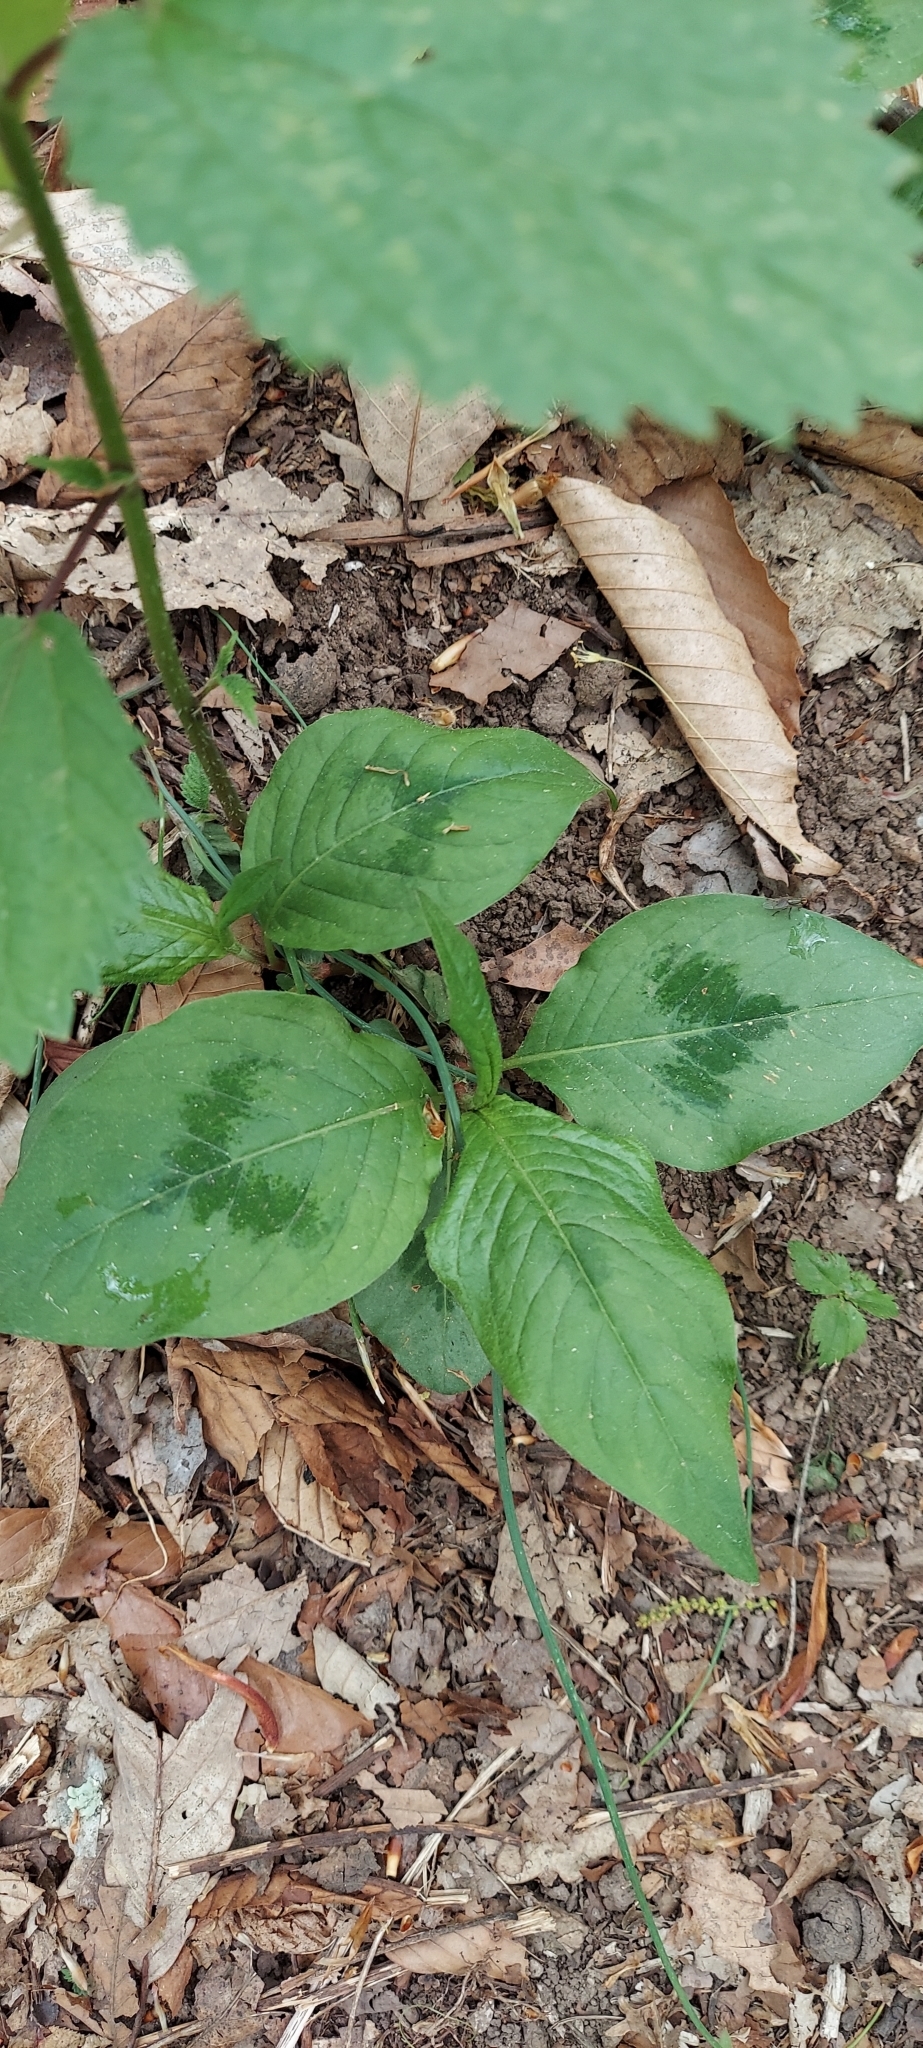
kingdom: Plantae
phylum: Tracheophyta
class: Magnoliopsida
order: Caryophyllales
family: Polygonaceae
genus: Persicaria
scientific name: Persicaria virginiana
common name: Jumpseed
